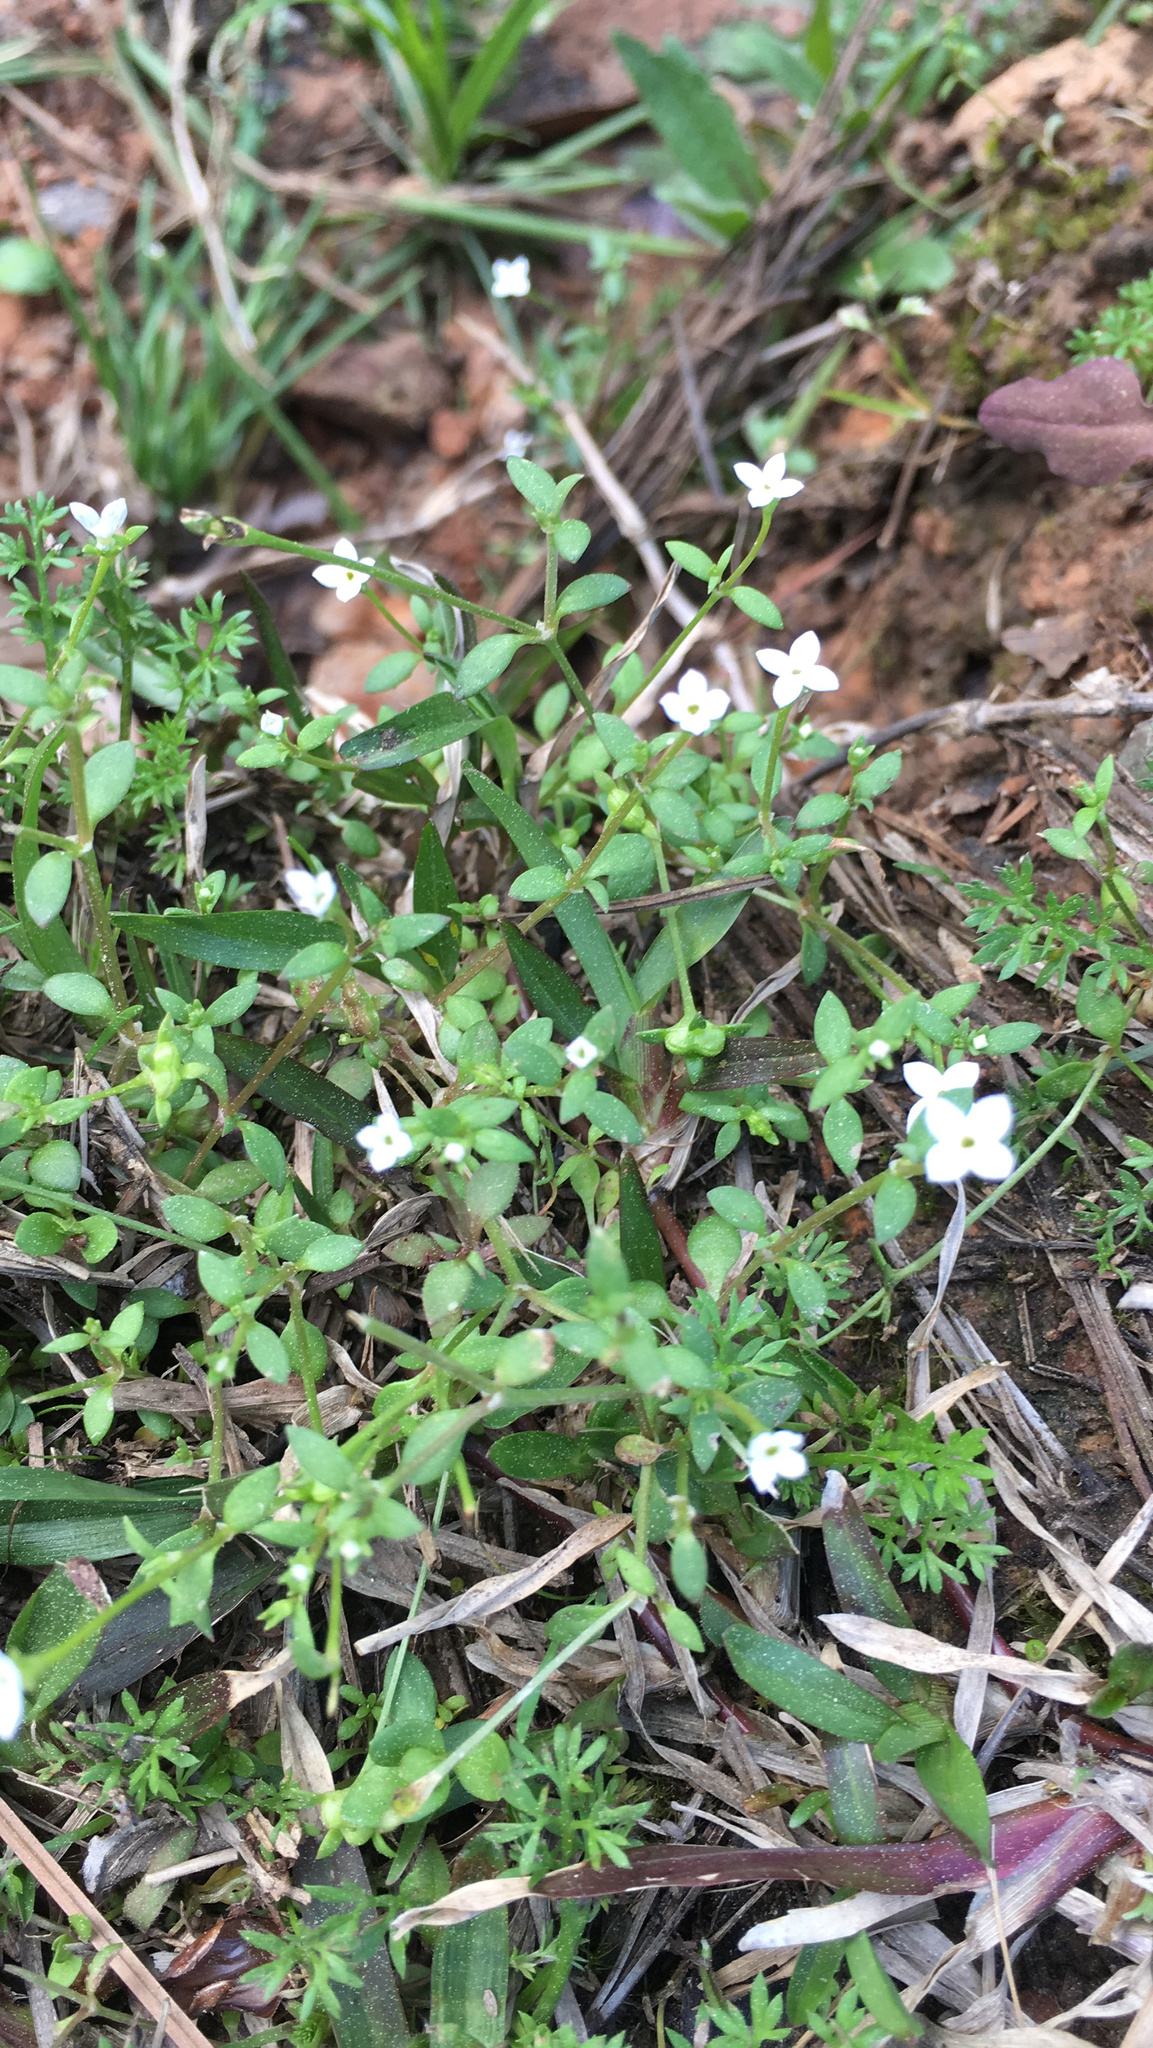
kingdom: Plantae
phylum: Tracheophyta
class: Magnoliopsida
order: Gentianales
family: Rubiaceae
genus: Houstonia
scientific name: Houstonia micrantha
